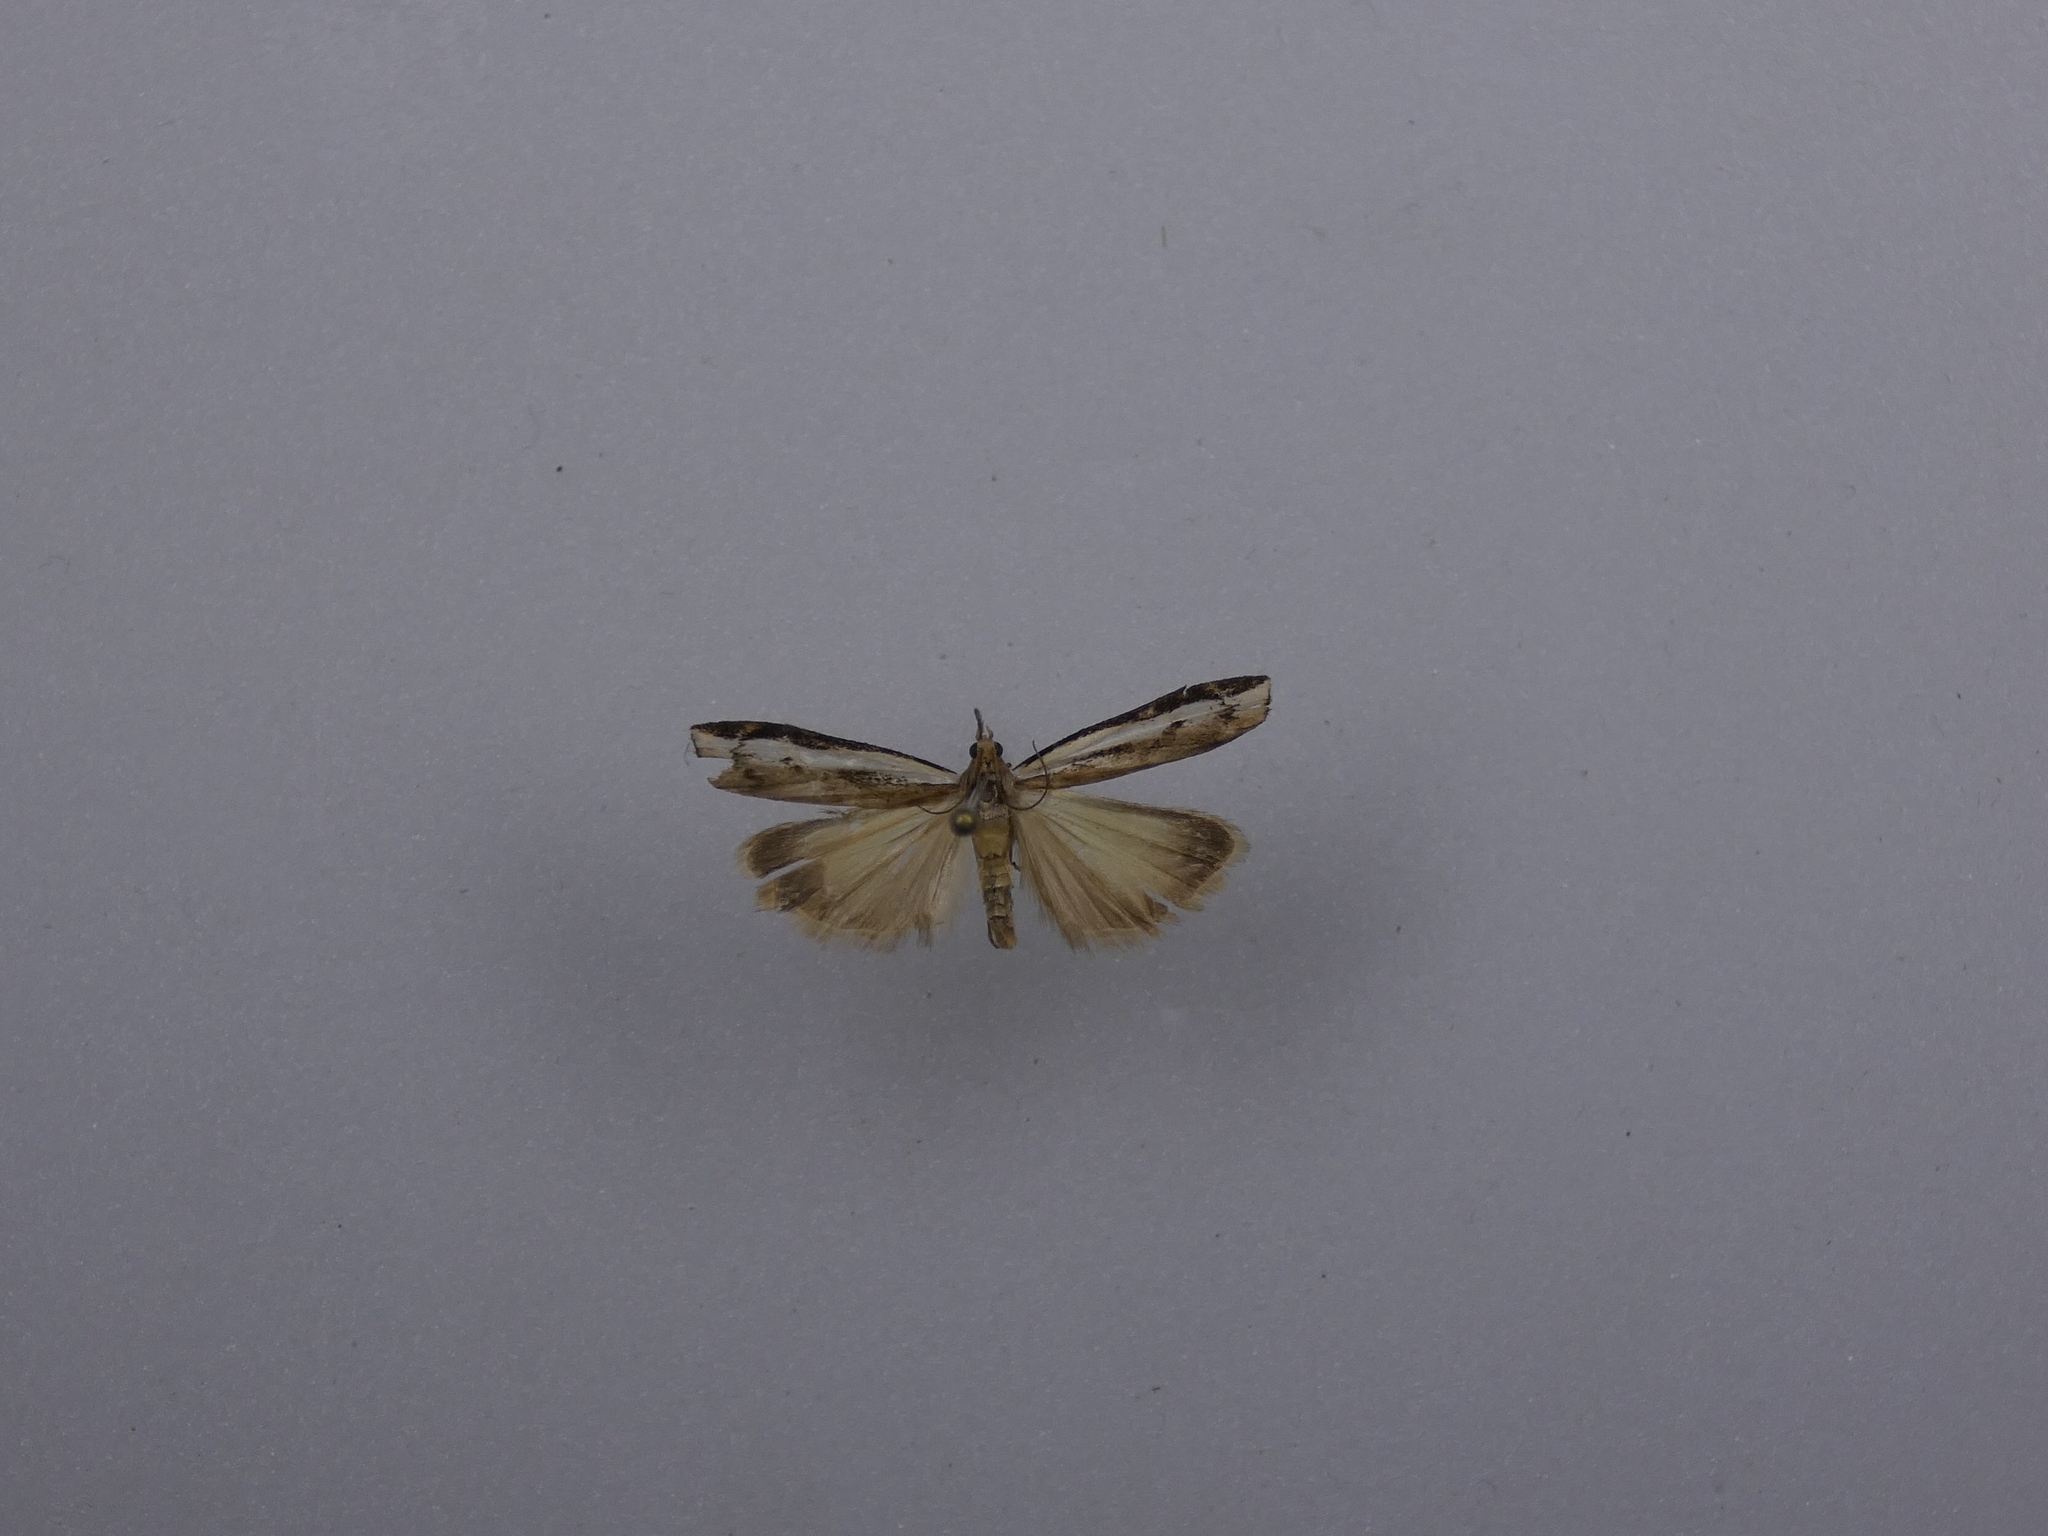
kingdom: Animalia
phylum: Arthropoda
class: Insecta
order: Lepidoptera
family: Crambidae
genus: Orocrambus
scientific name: Orocrambus flexuosellus
